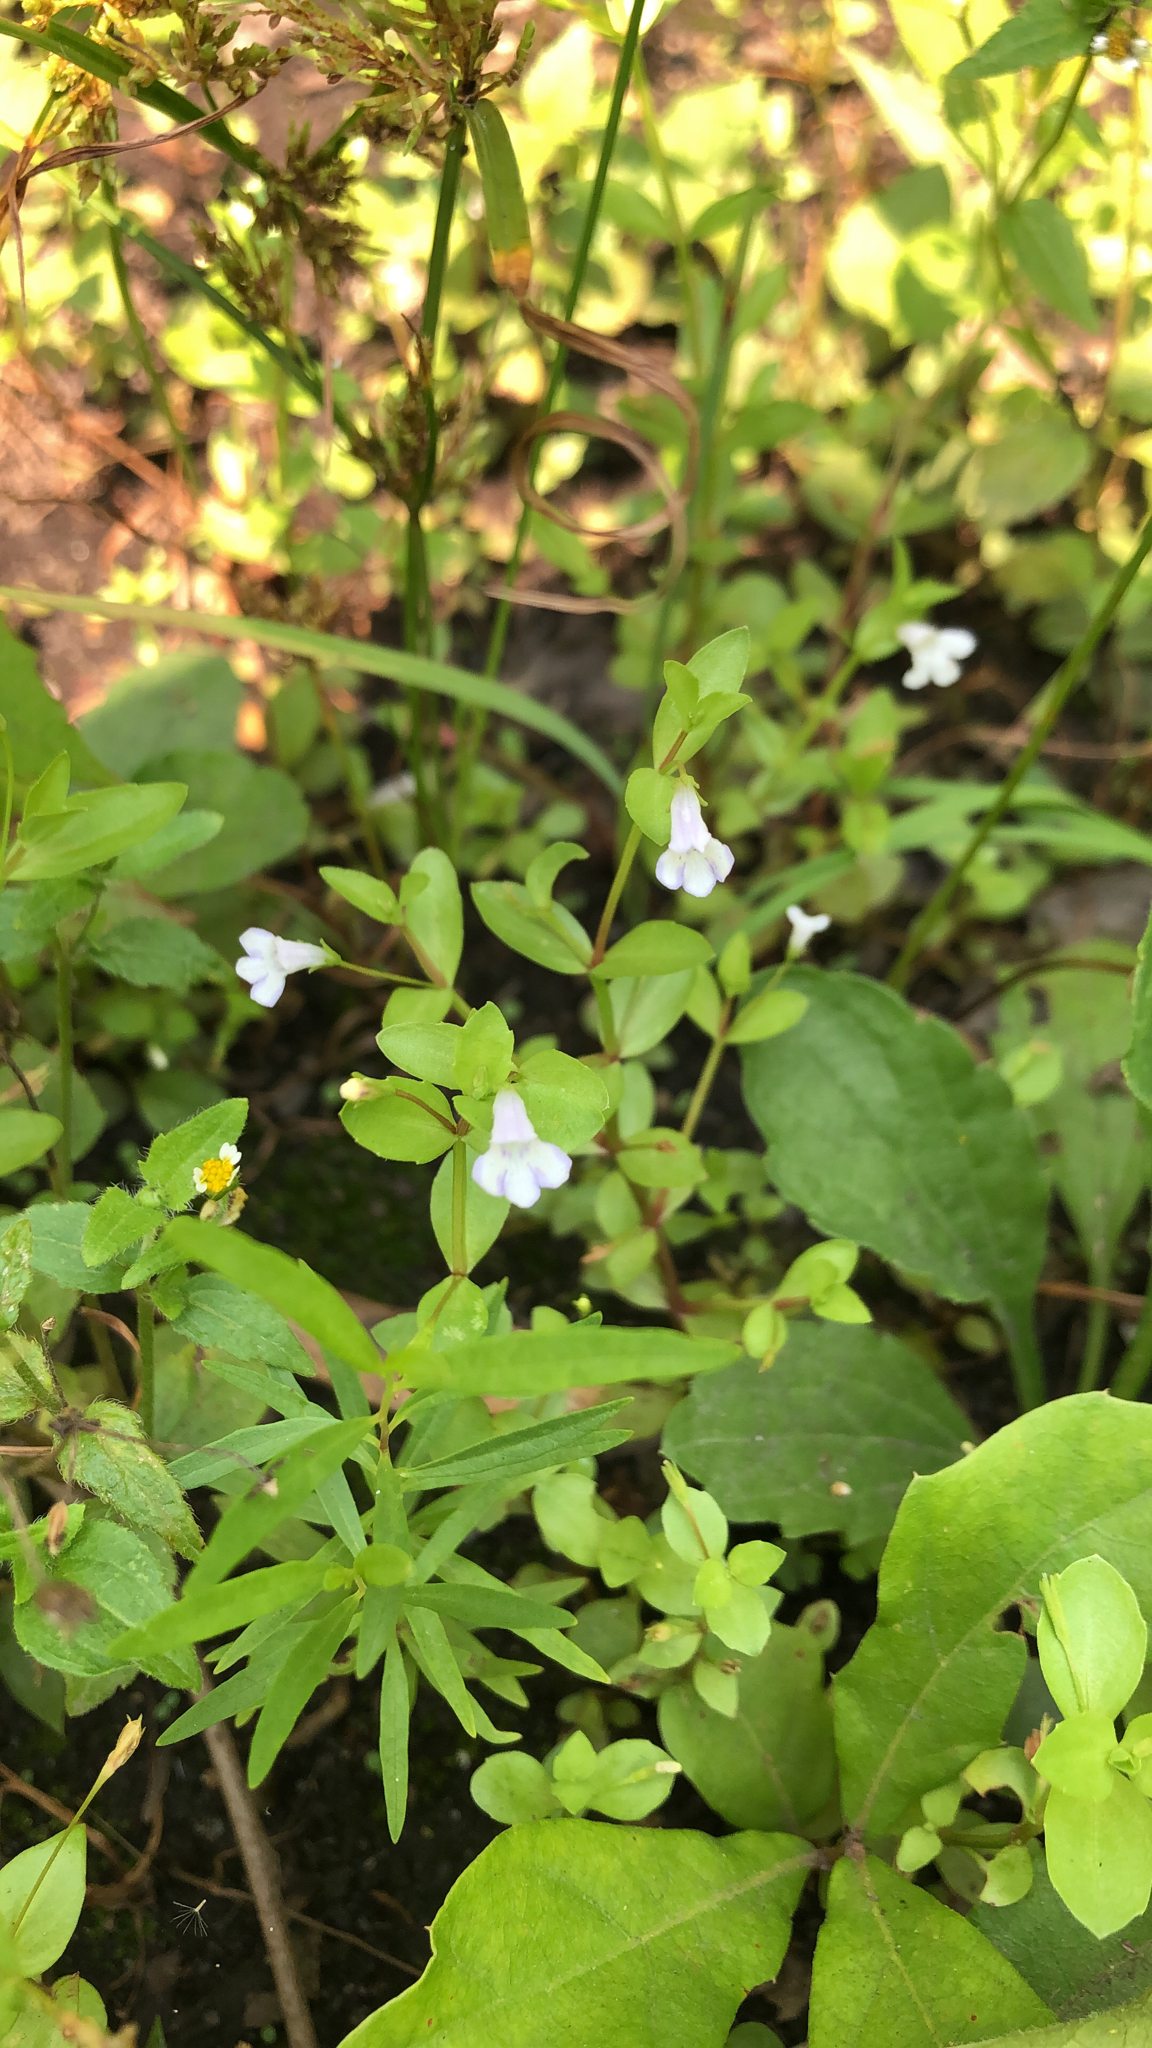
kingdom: Plantae
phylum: Tracheophyta
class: Magnoliopsida
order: Lamiales
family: Linderniaceae
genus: Lindernia
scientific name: Lindernia dubia
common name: Annual false pimpernel
